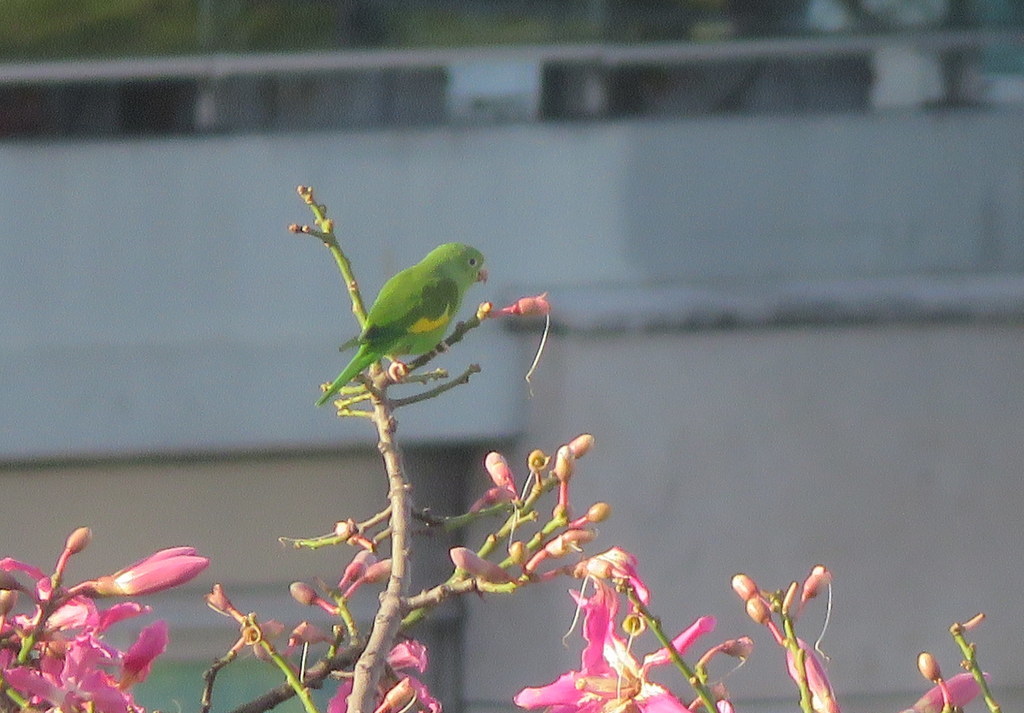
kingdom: Animalia
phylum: Chordata
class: Aves
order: Psittaciformes
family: Psittacidae
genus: Brotogeris
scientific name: Brotogeris chiriri
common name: Yellow-chevroned parakeet
